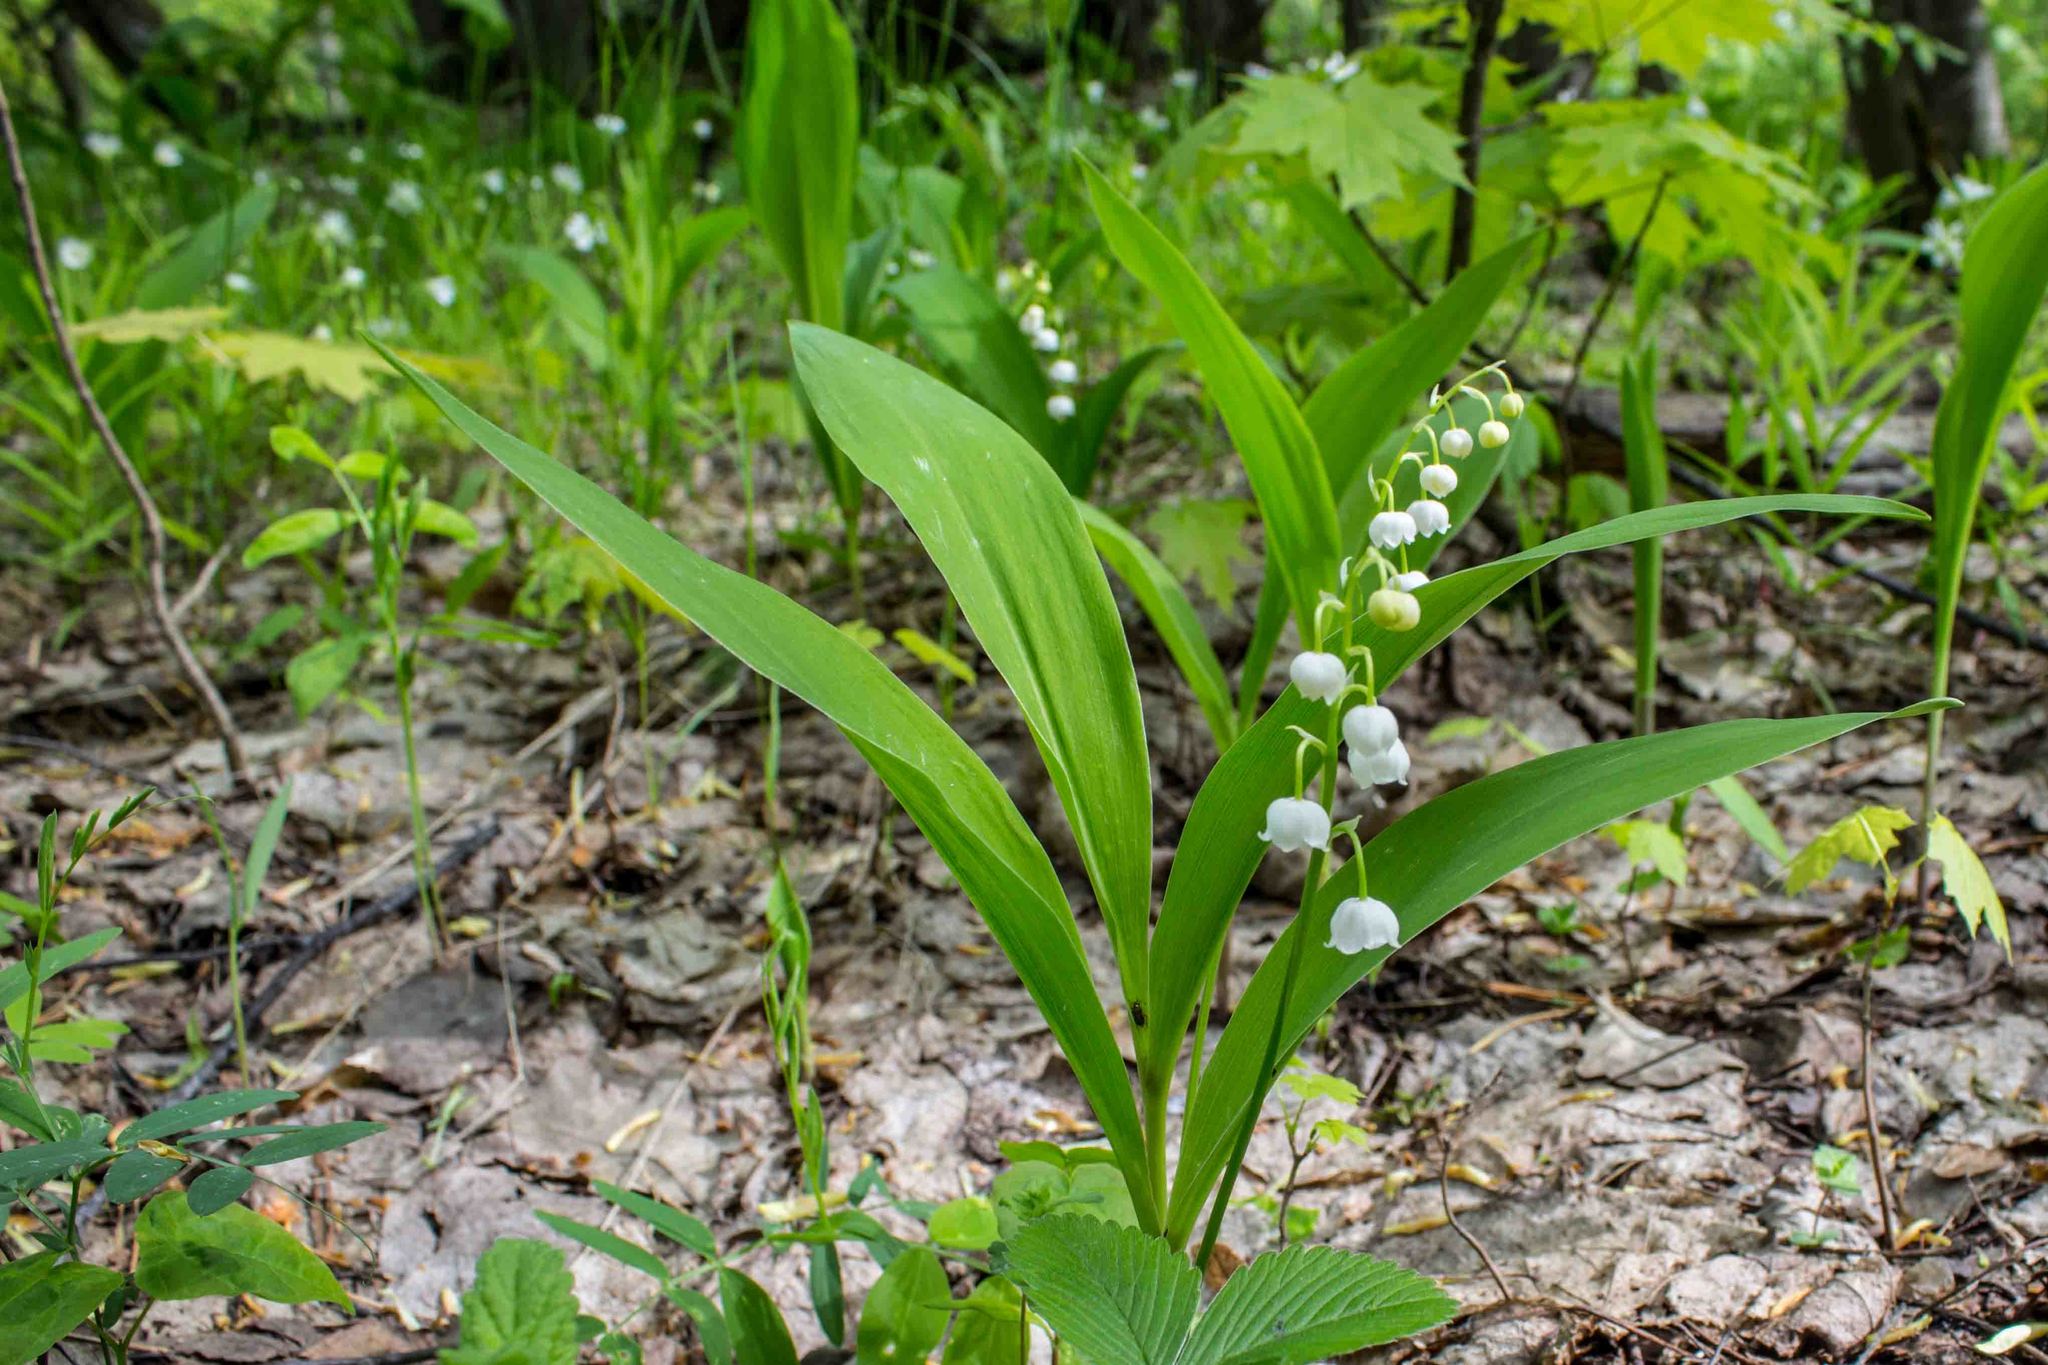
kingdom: Plantae
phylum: Tracheophyta
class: Liliopsida
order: Asparagales
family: Asparagaceae
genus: Convallaria
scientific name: Convallaria majalis
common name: Lily-of-the-valley
